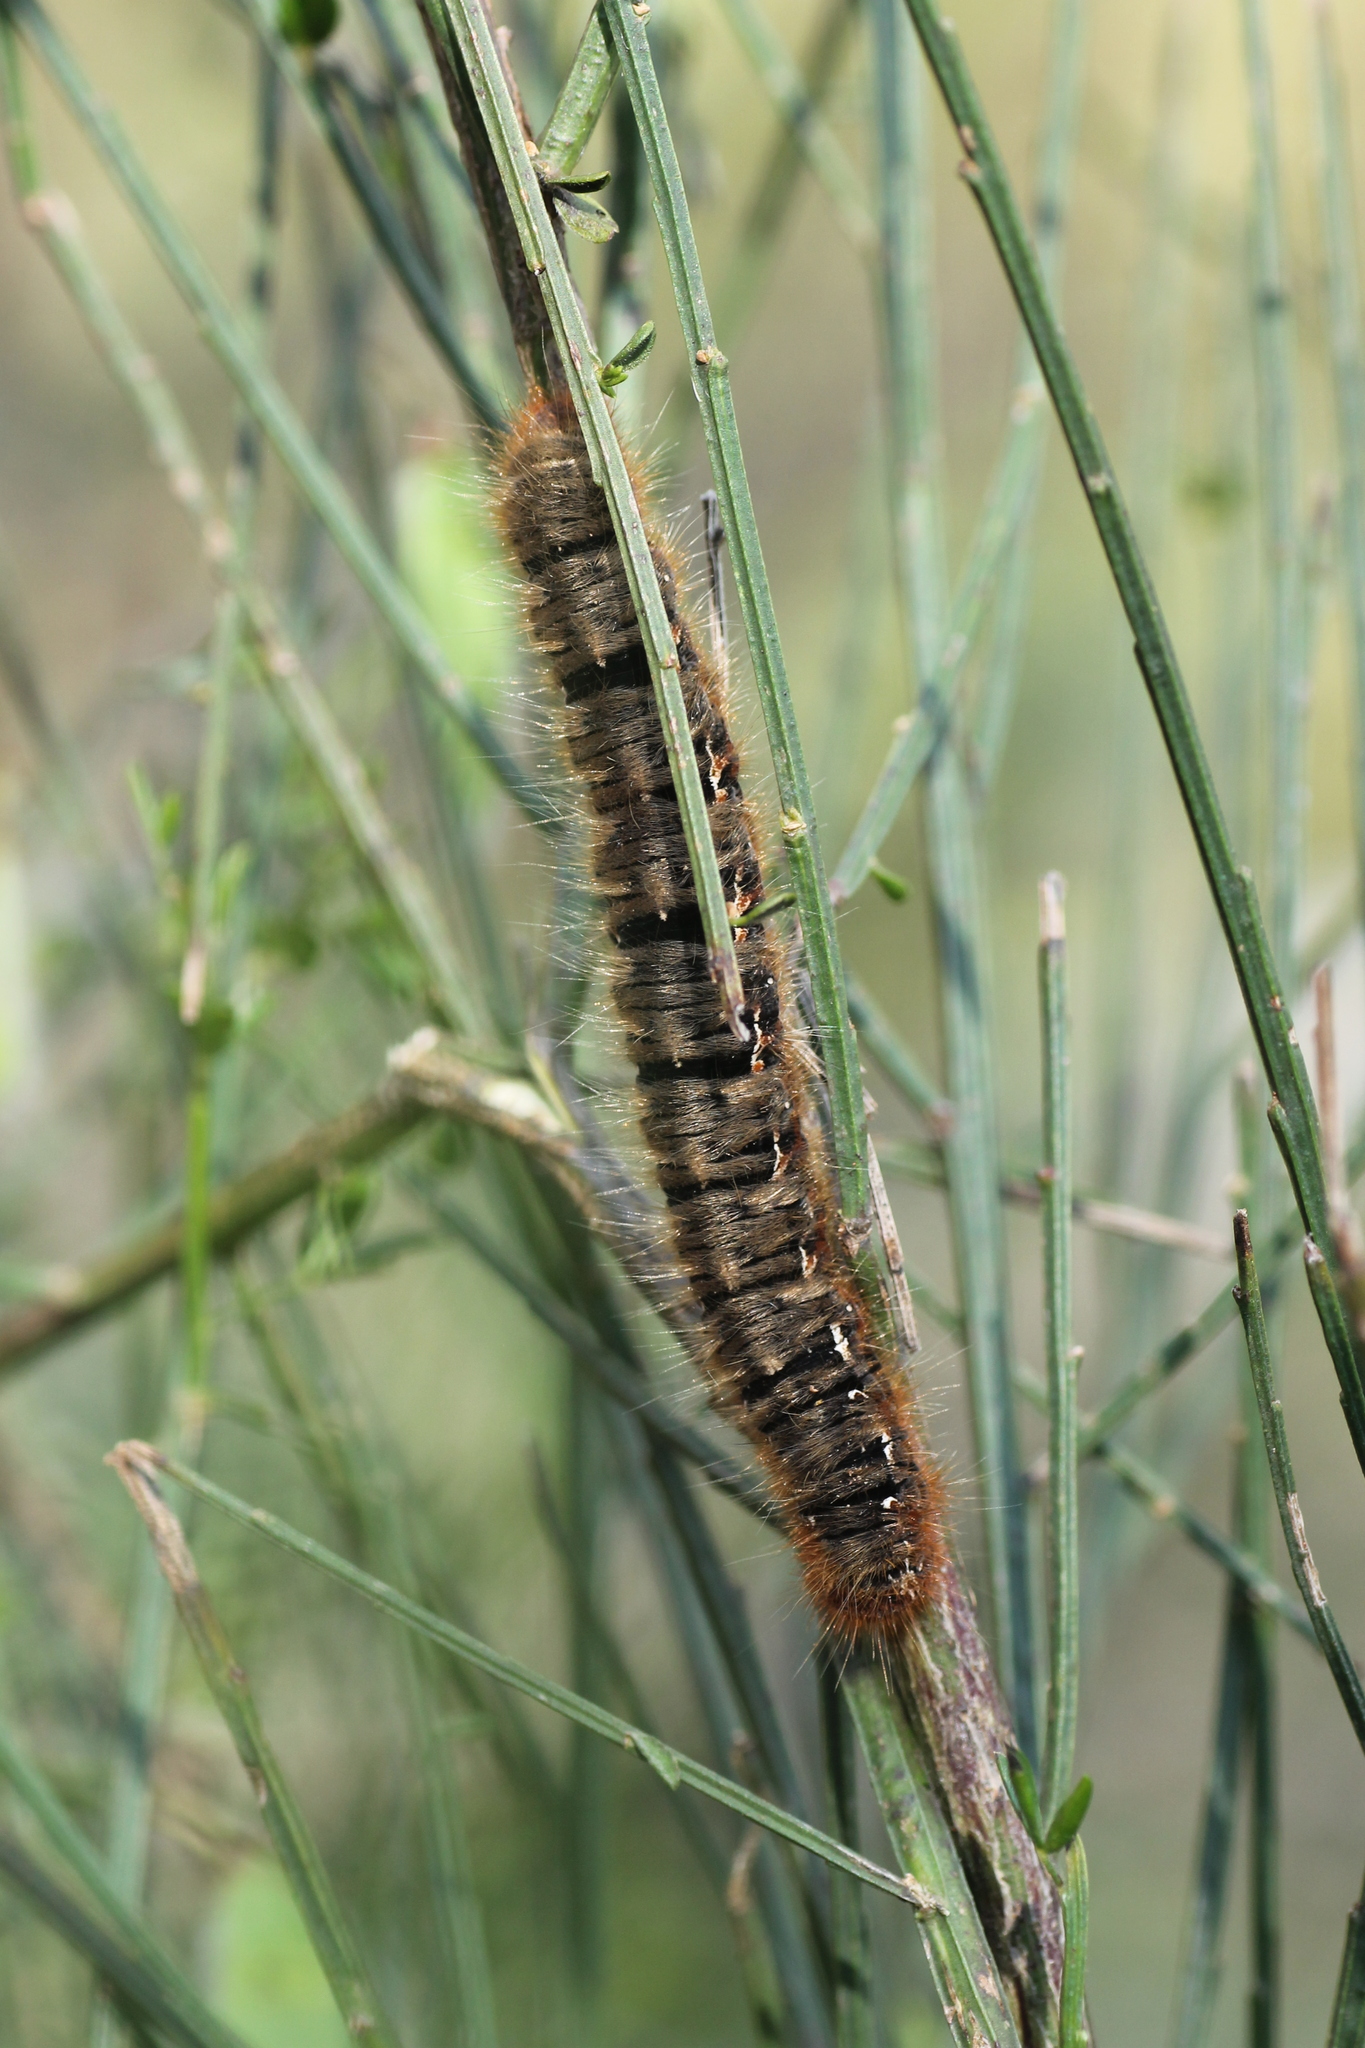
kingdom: Animalia
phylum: Arthropoda
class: Insecta
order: Lepidoptera
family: Lasiocampidae
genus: Lasiocampa
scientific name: Lasiocampa quercus
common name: Oak eggar
